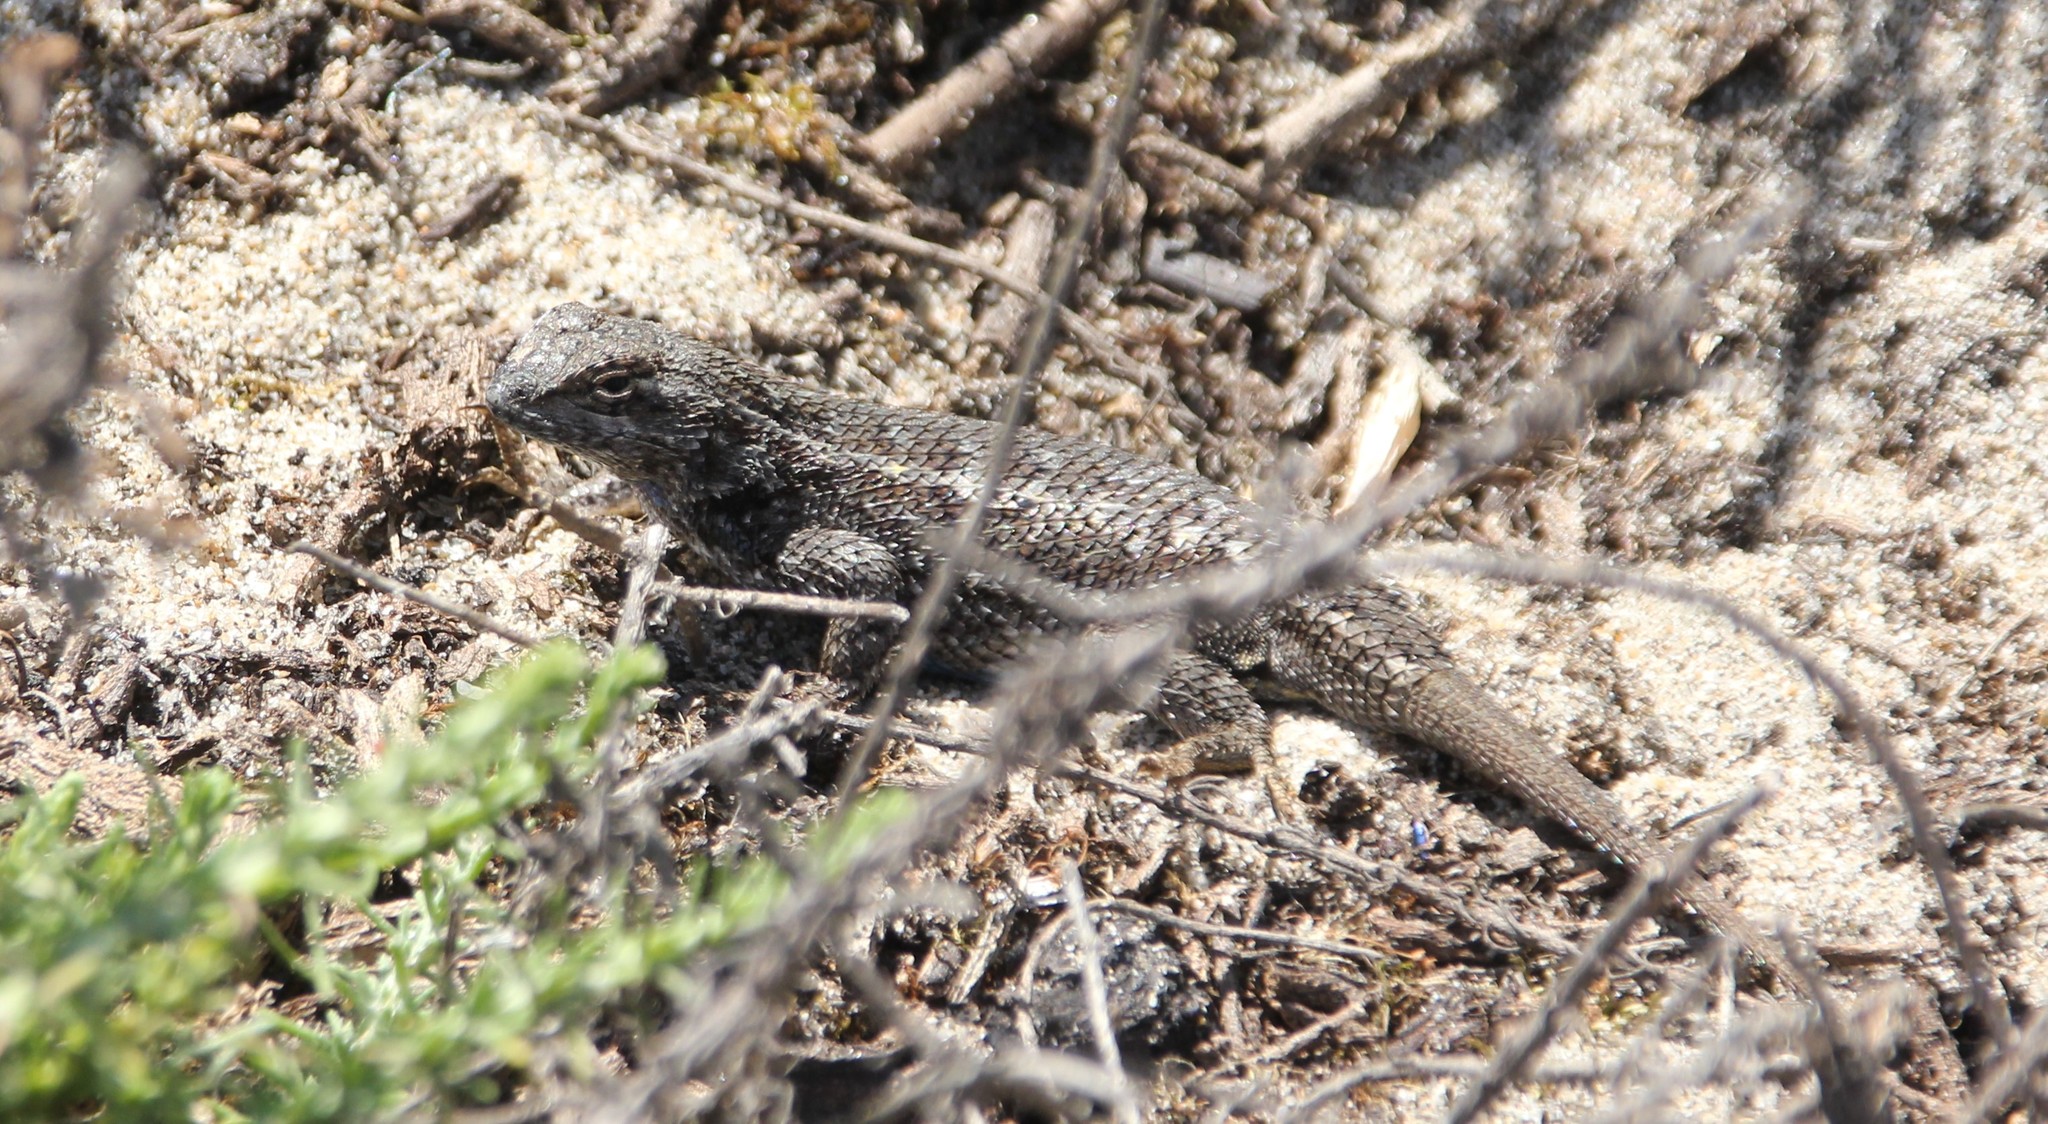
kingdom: Animalia
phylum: Chordata
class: Squamata
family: Phrynosomatidae
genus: Sceloporus
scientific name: Sceloporus occidentalis
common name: Western fence lizard
